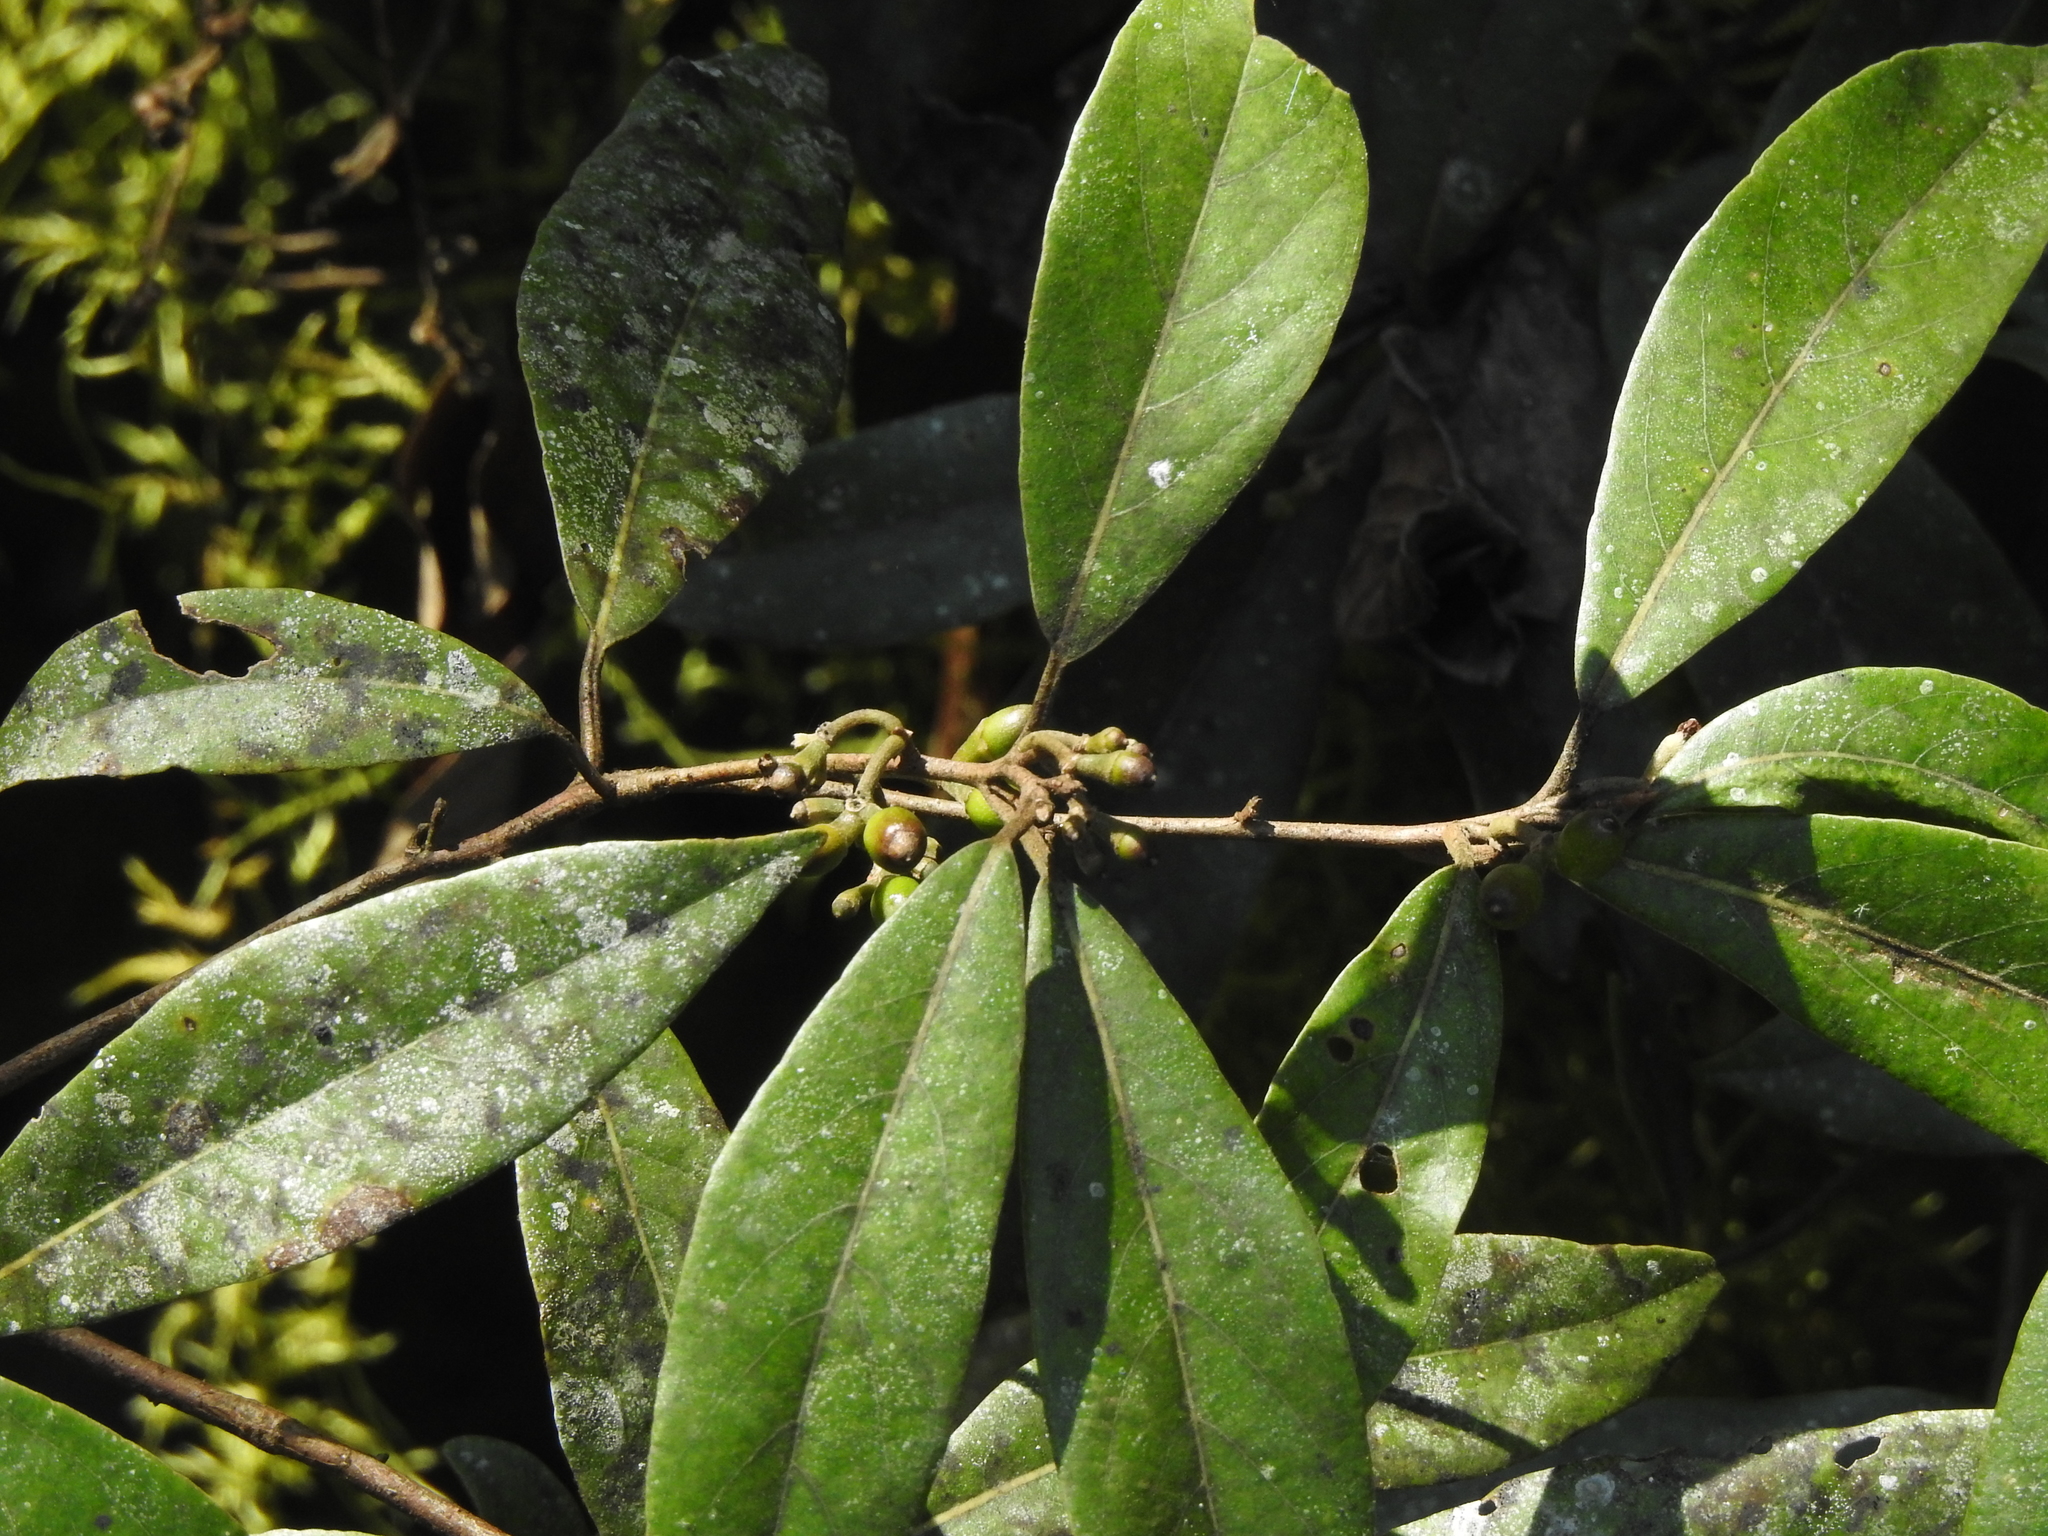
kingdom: Plantae
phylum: Tracheophyta
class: Magnoliopsida
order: Laurales
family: Lauraceae
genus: Litsea
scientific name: Litsea morrisonensis
